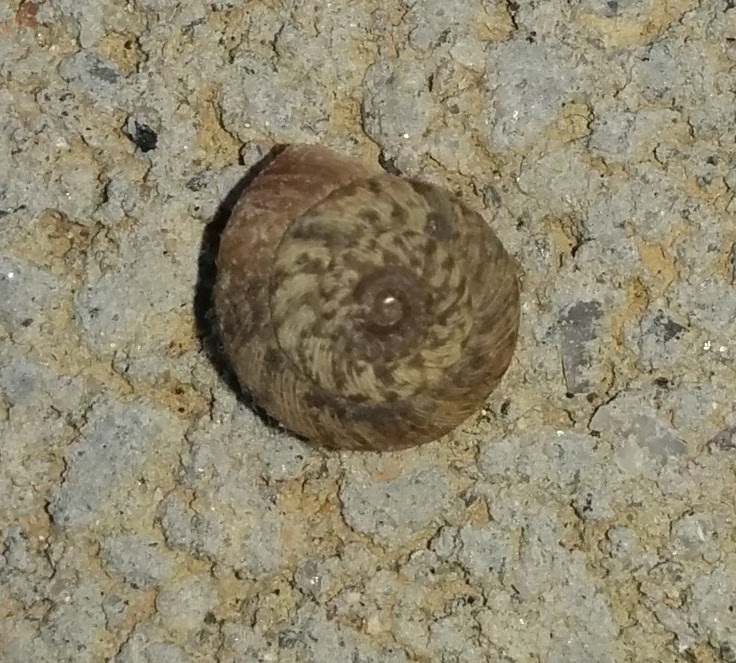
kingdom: Animalia
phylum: Mollusca
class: Gastropoda
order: Stylommatophora
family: Geomitridae
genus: Xerotricha
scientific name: Xerotricha conspurcata
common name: Snail
